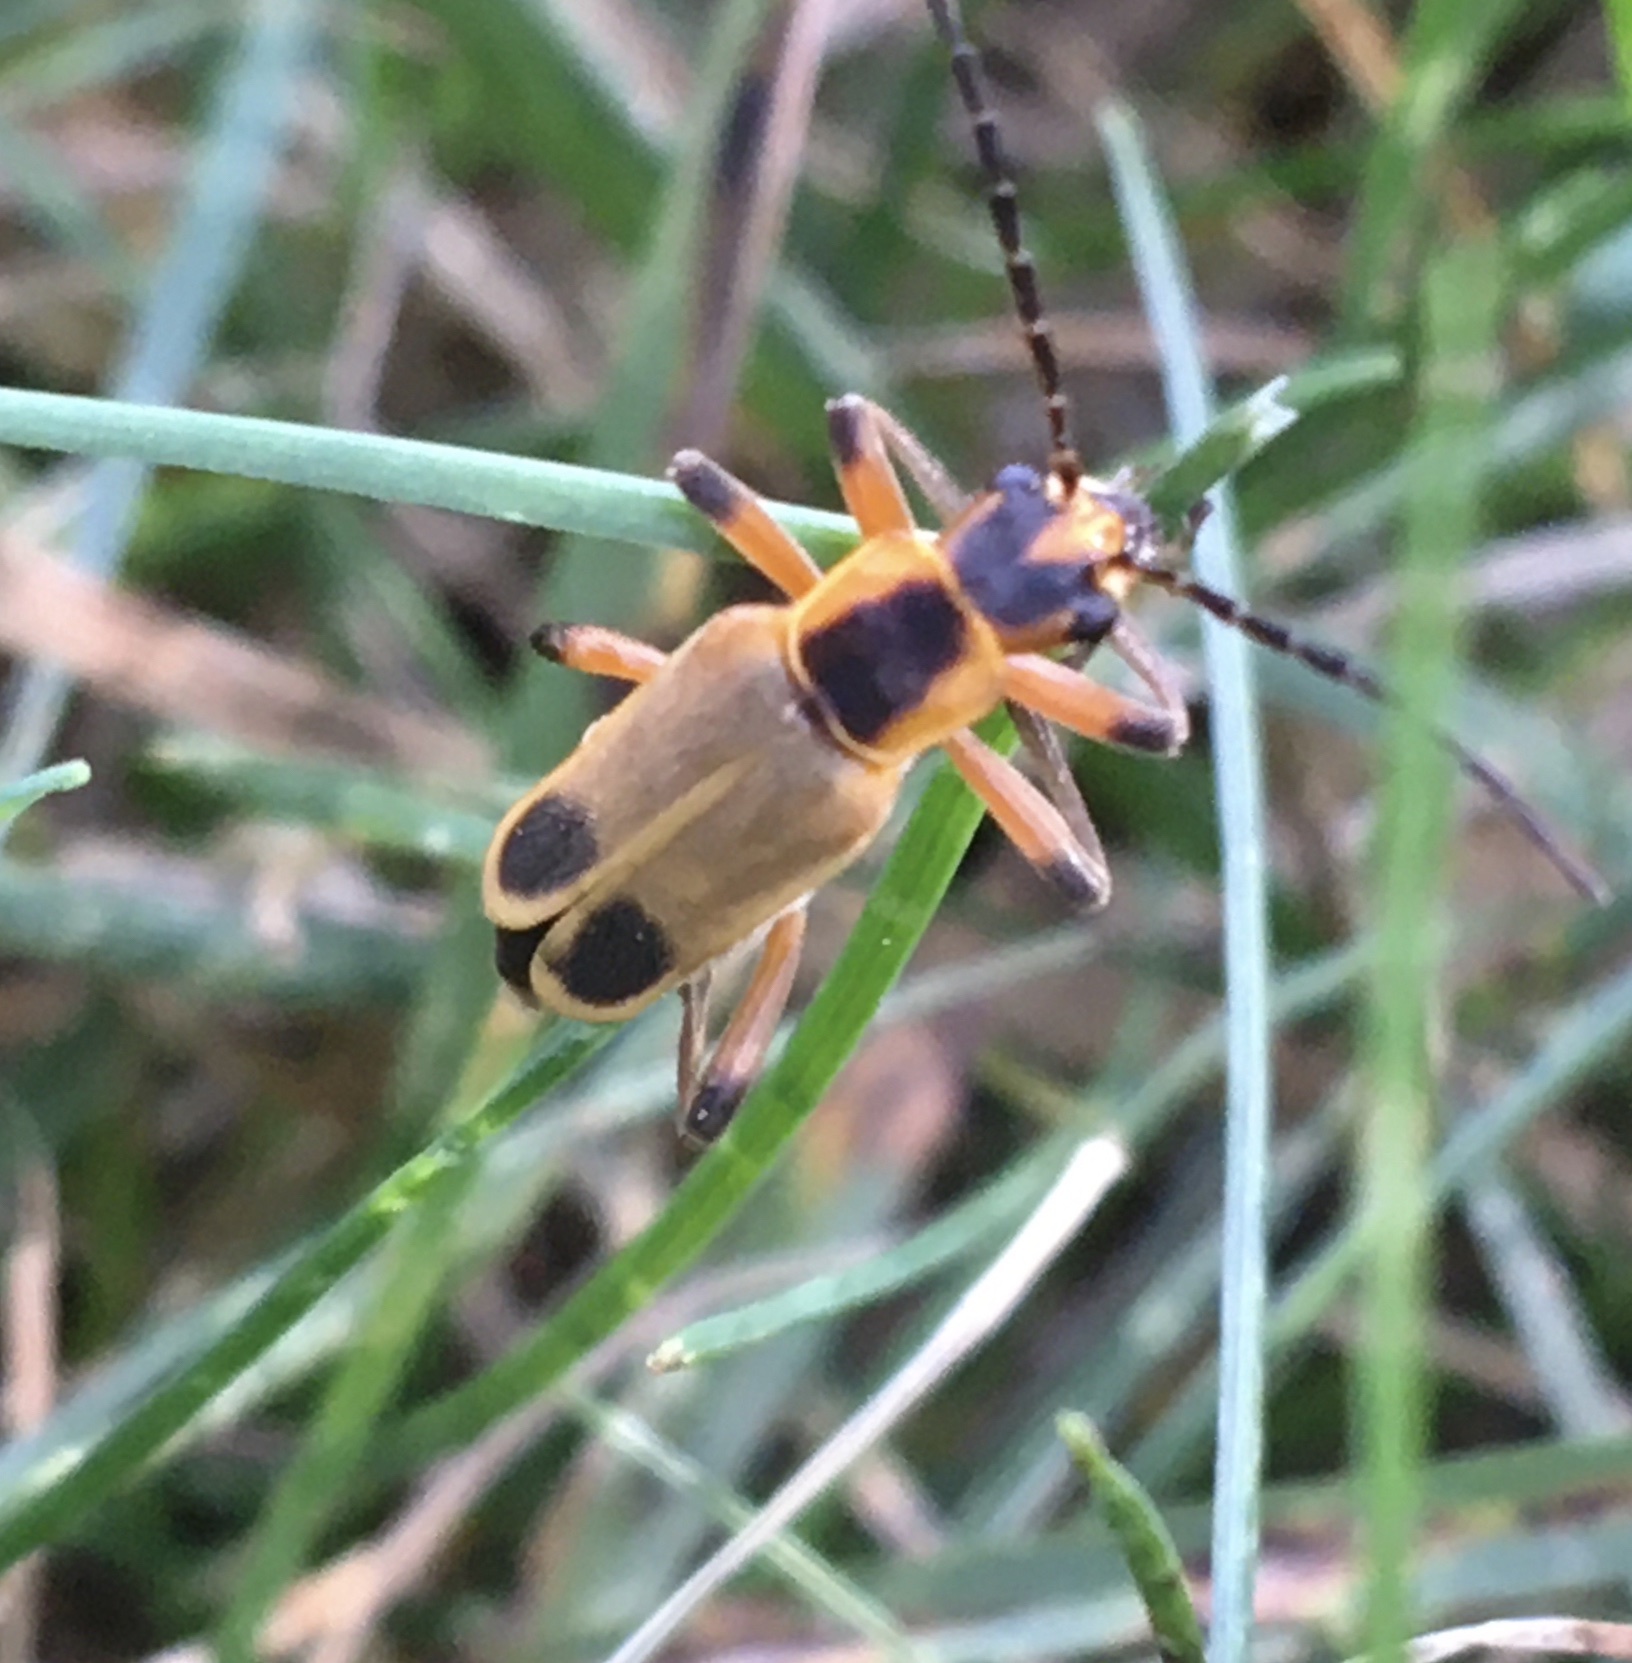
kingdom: Animalia
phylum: Arthropoda
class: Insecta
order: Coleoptera
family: Cantharidae
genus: Chauliognathus
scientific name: Chauliognathus marginatus
